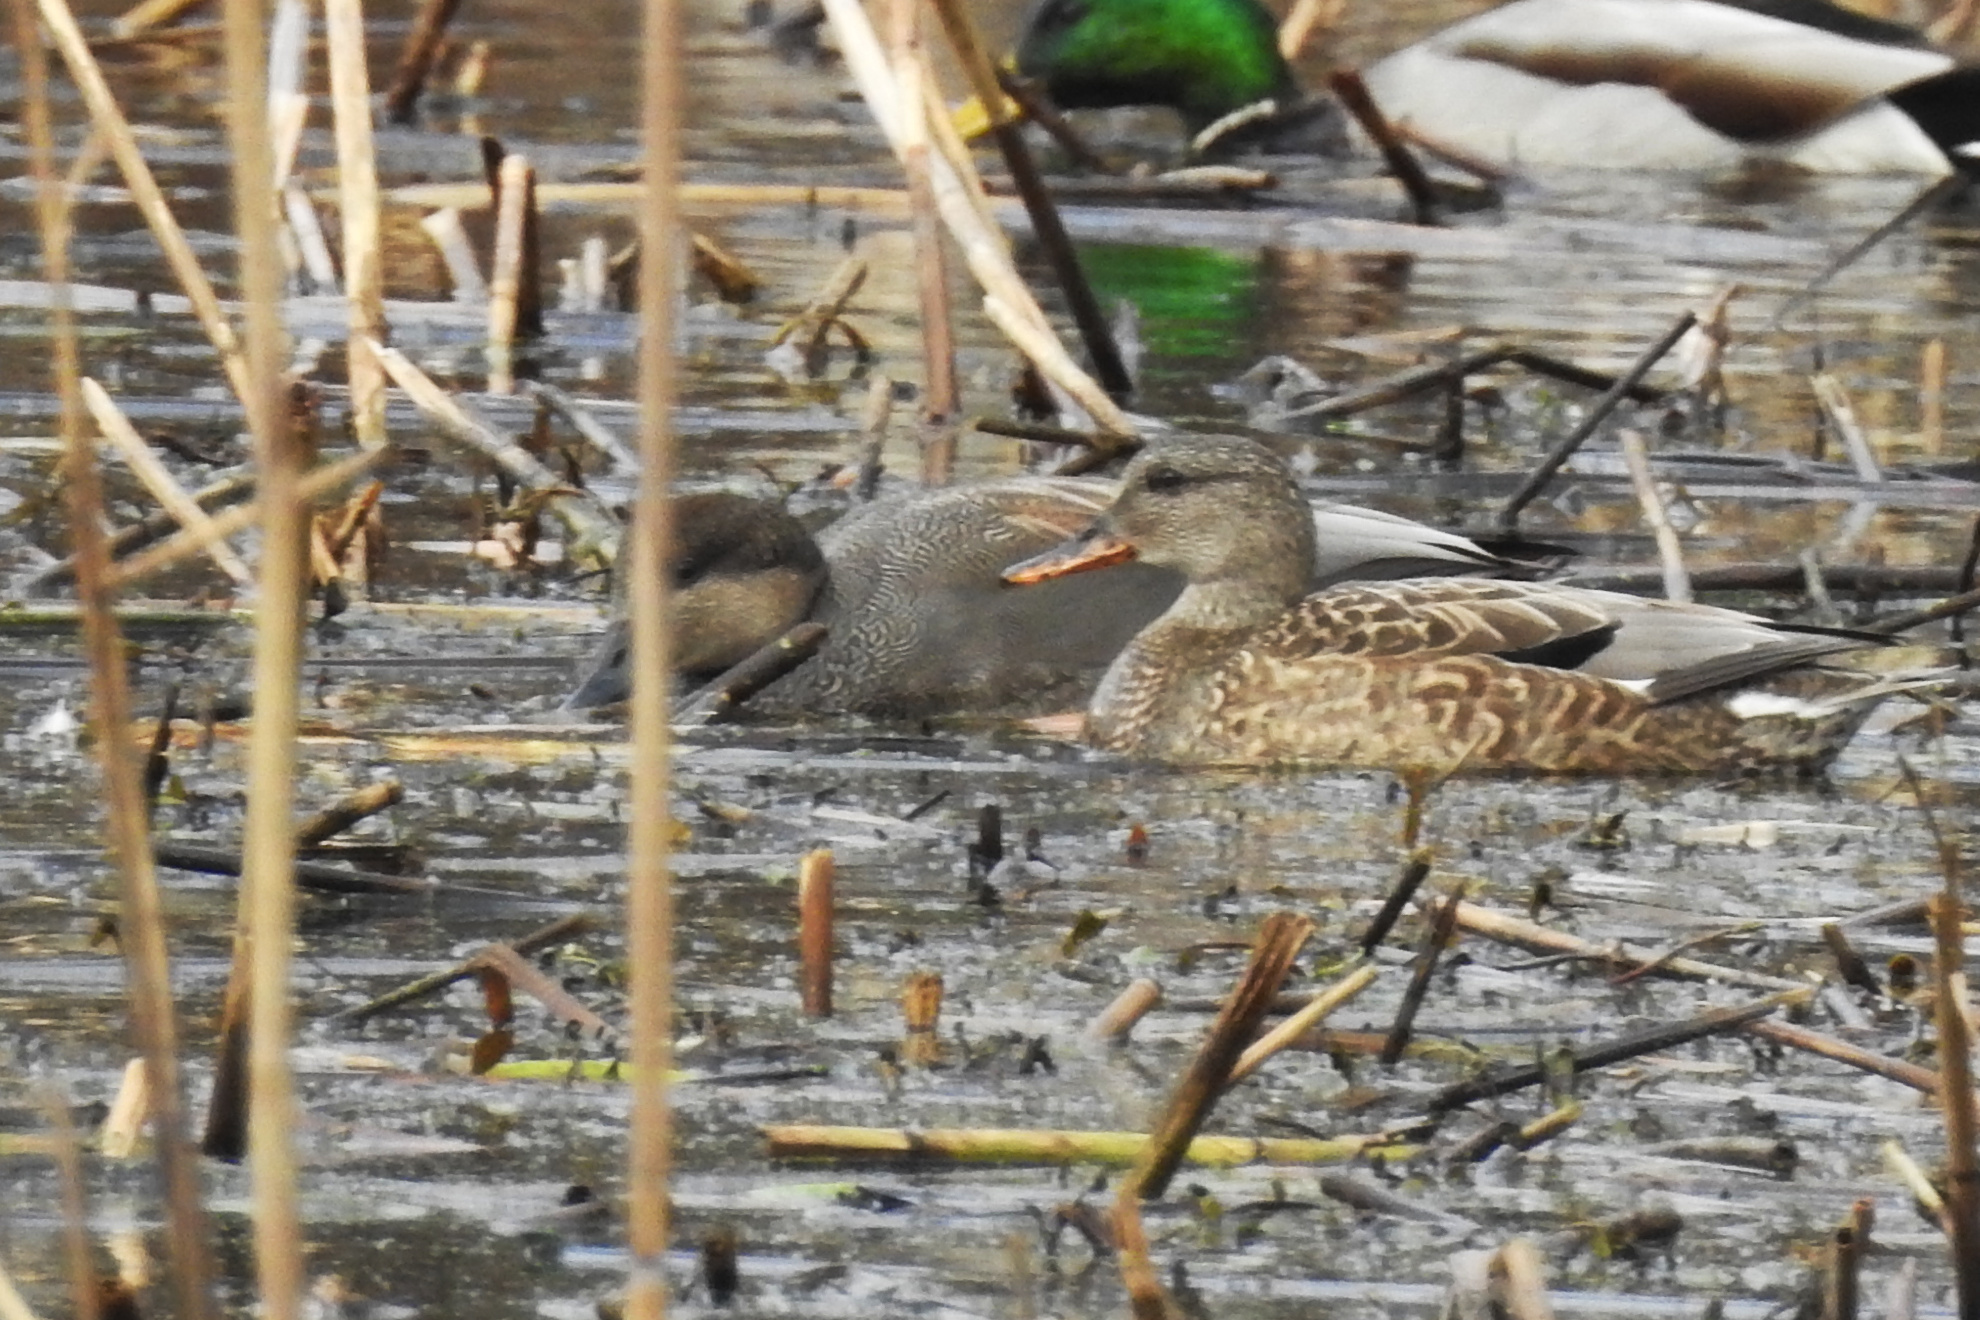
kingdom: Animalia
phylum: Chordata
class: Aves
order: Anseriformes
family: Anatidae
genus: Mareca
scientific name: Mareca strepera
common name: Gadwall
